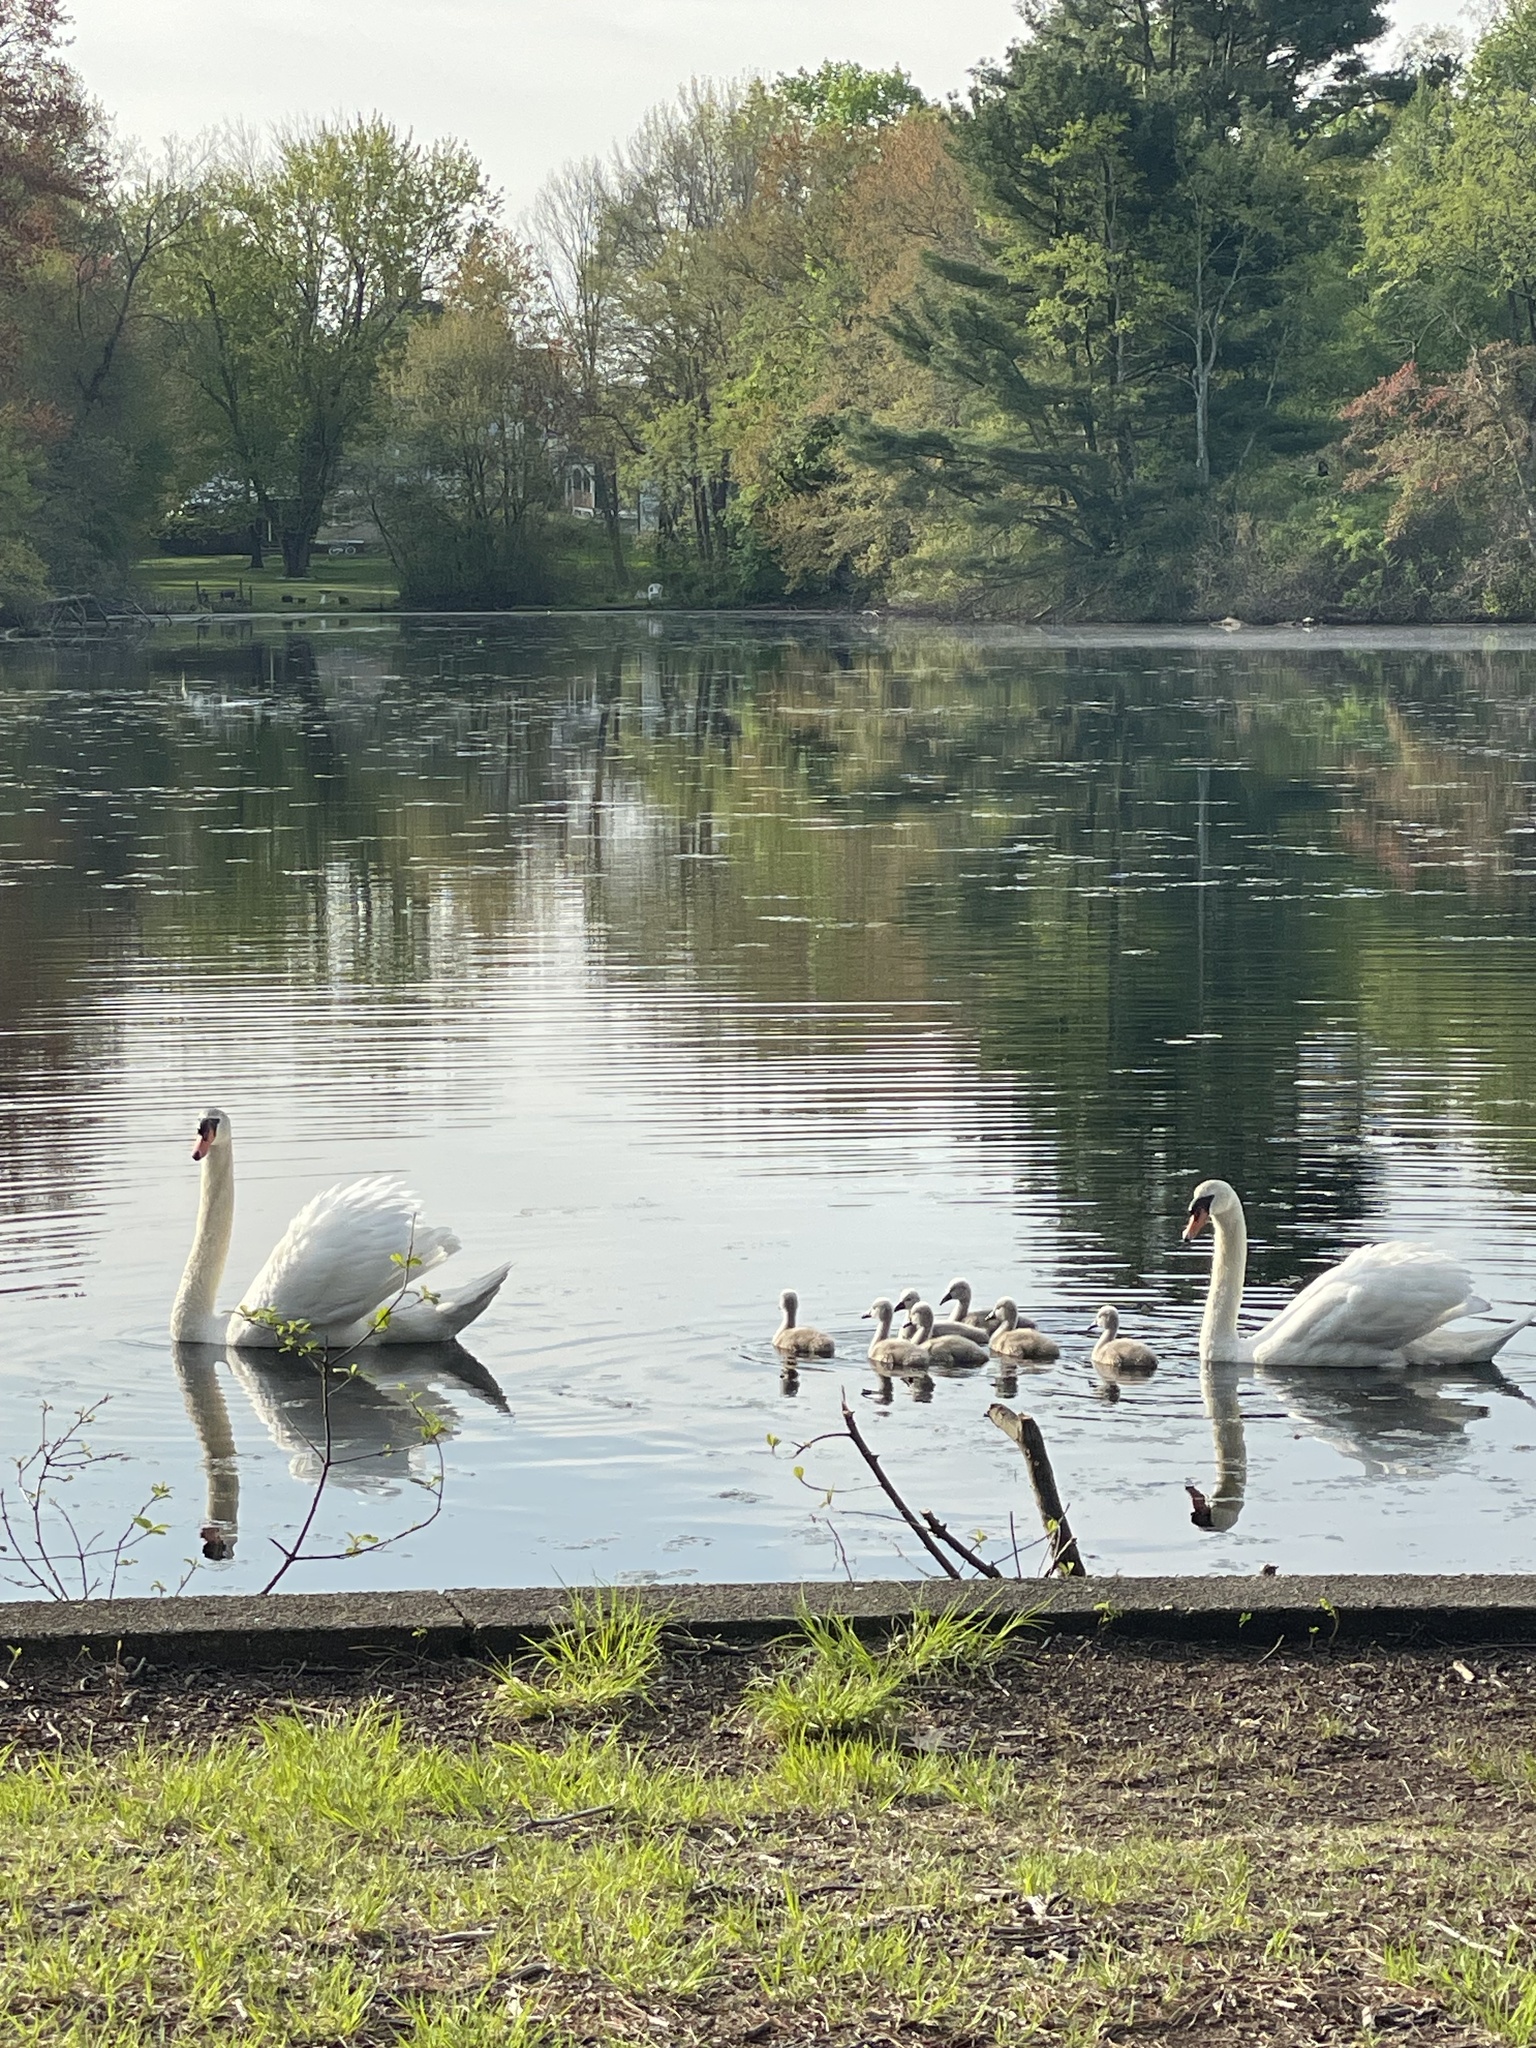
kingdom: Animalia
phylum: Chordata
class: Aves
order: Anseriformes
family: Anatidae
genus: Cygnus
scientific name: Cygnus olor
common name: Mute swan
